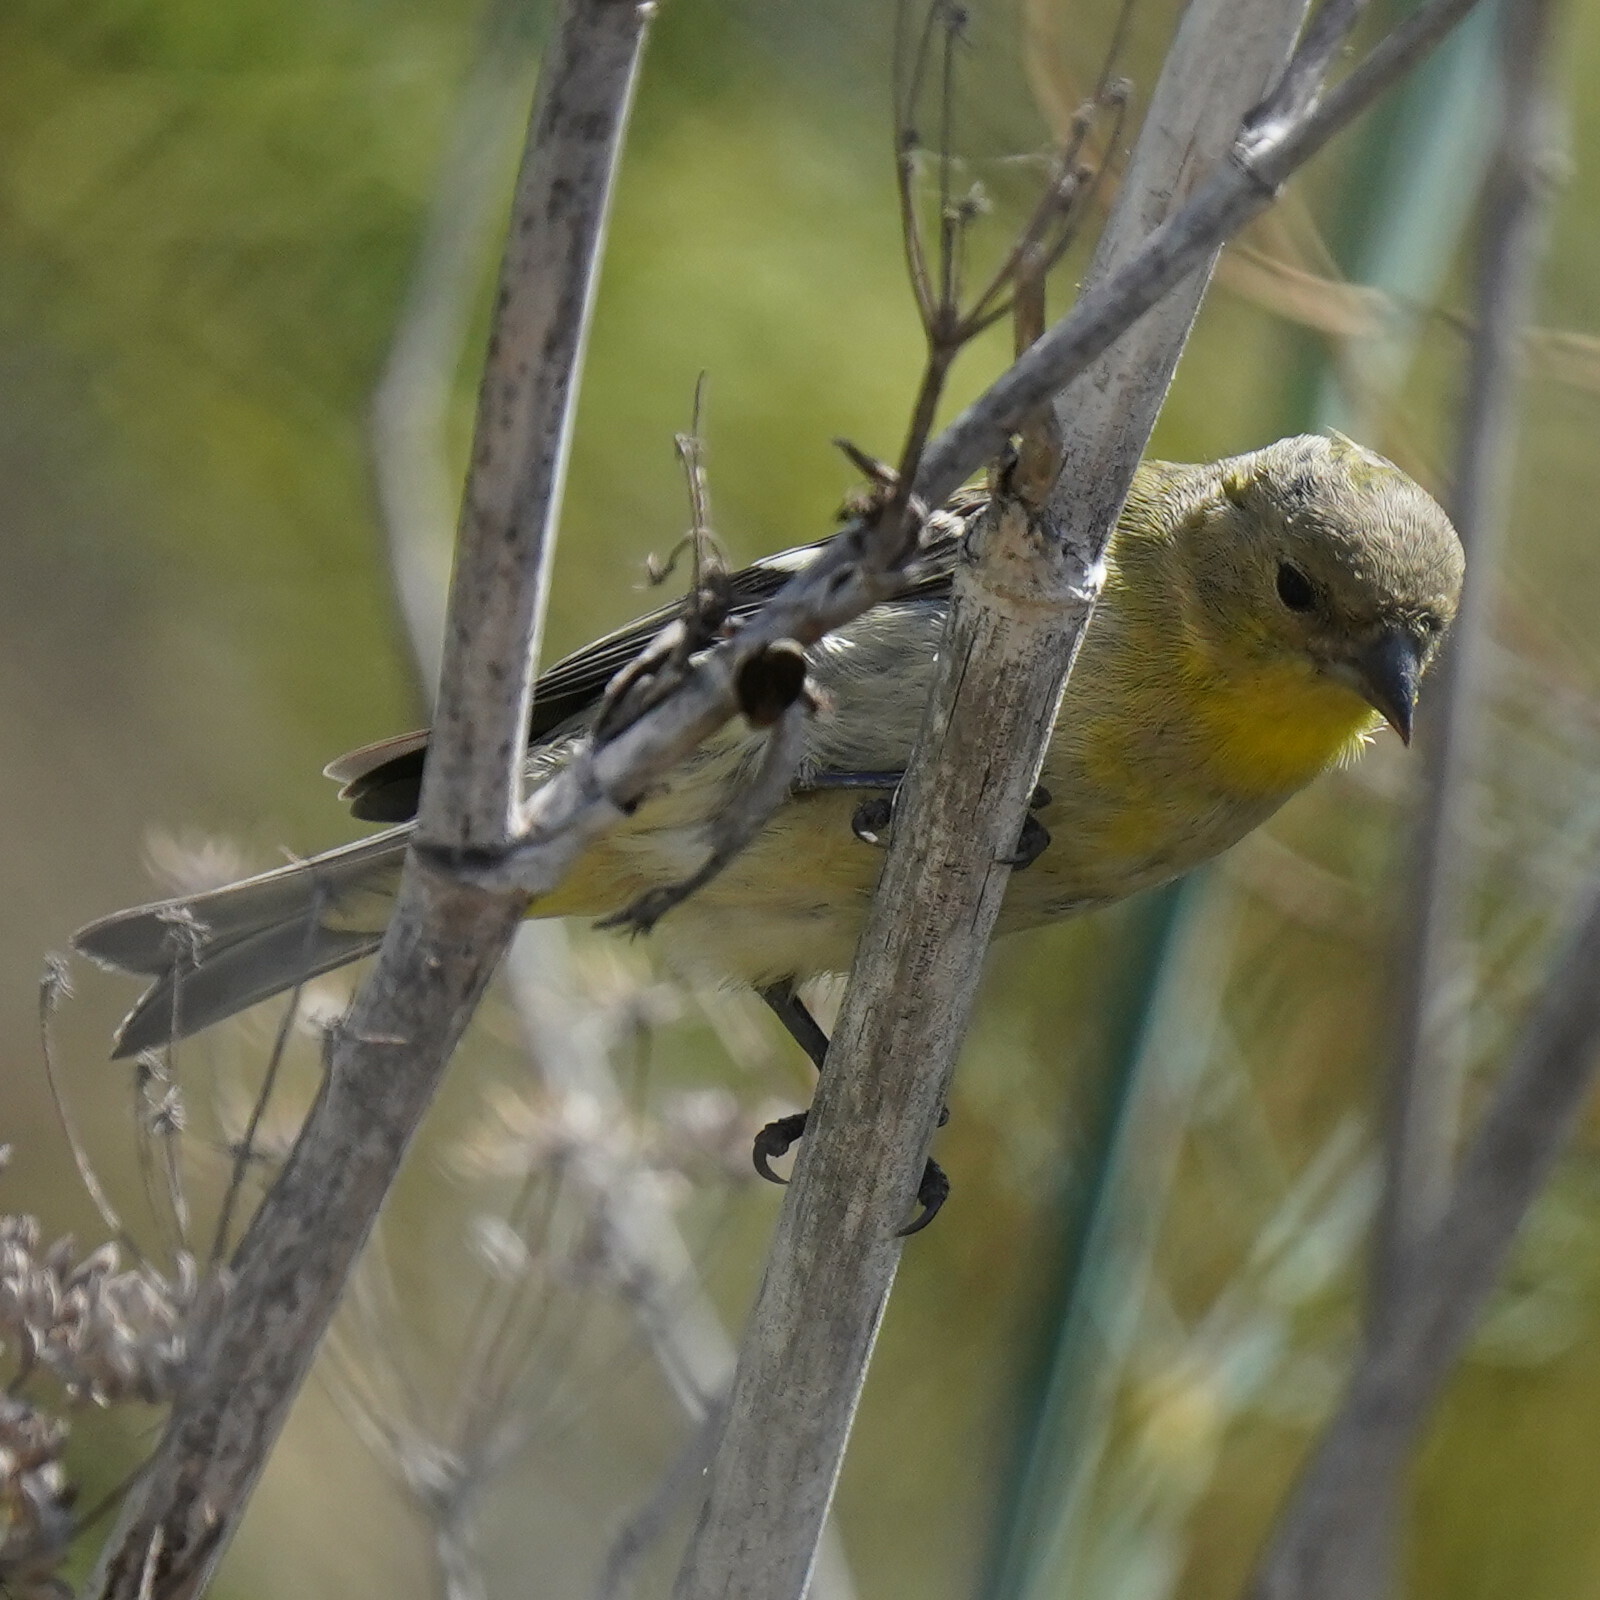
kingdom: Animalia
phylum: Chordata
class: Aves
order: Passeriformes
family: Fringillidae
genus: Spinus
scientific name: Spinus psaltria
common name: Lesser goldfinch
